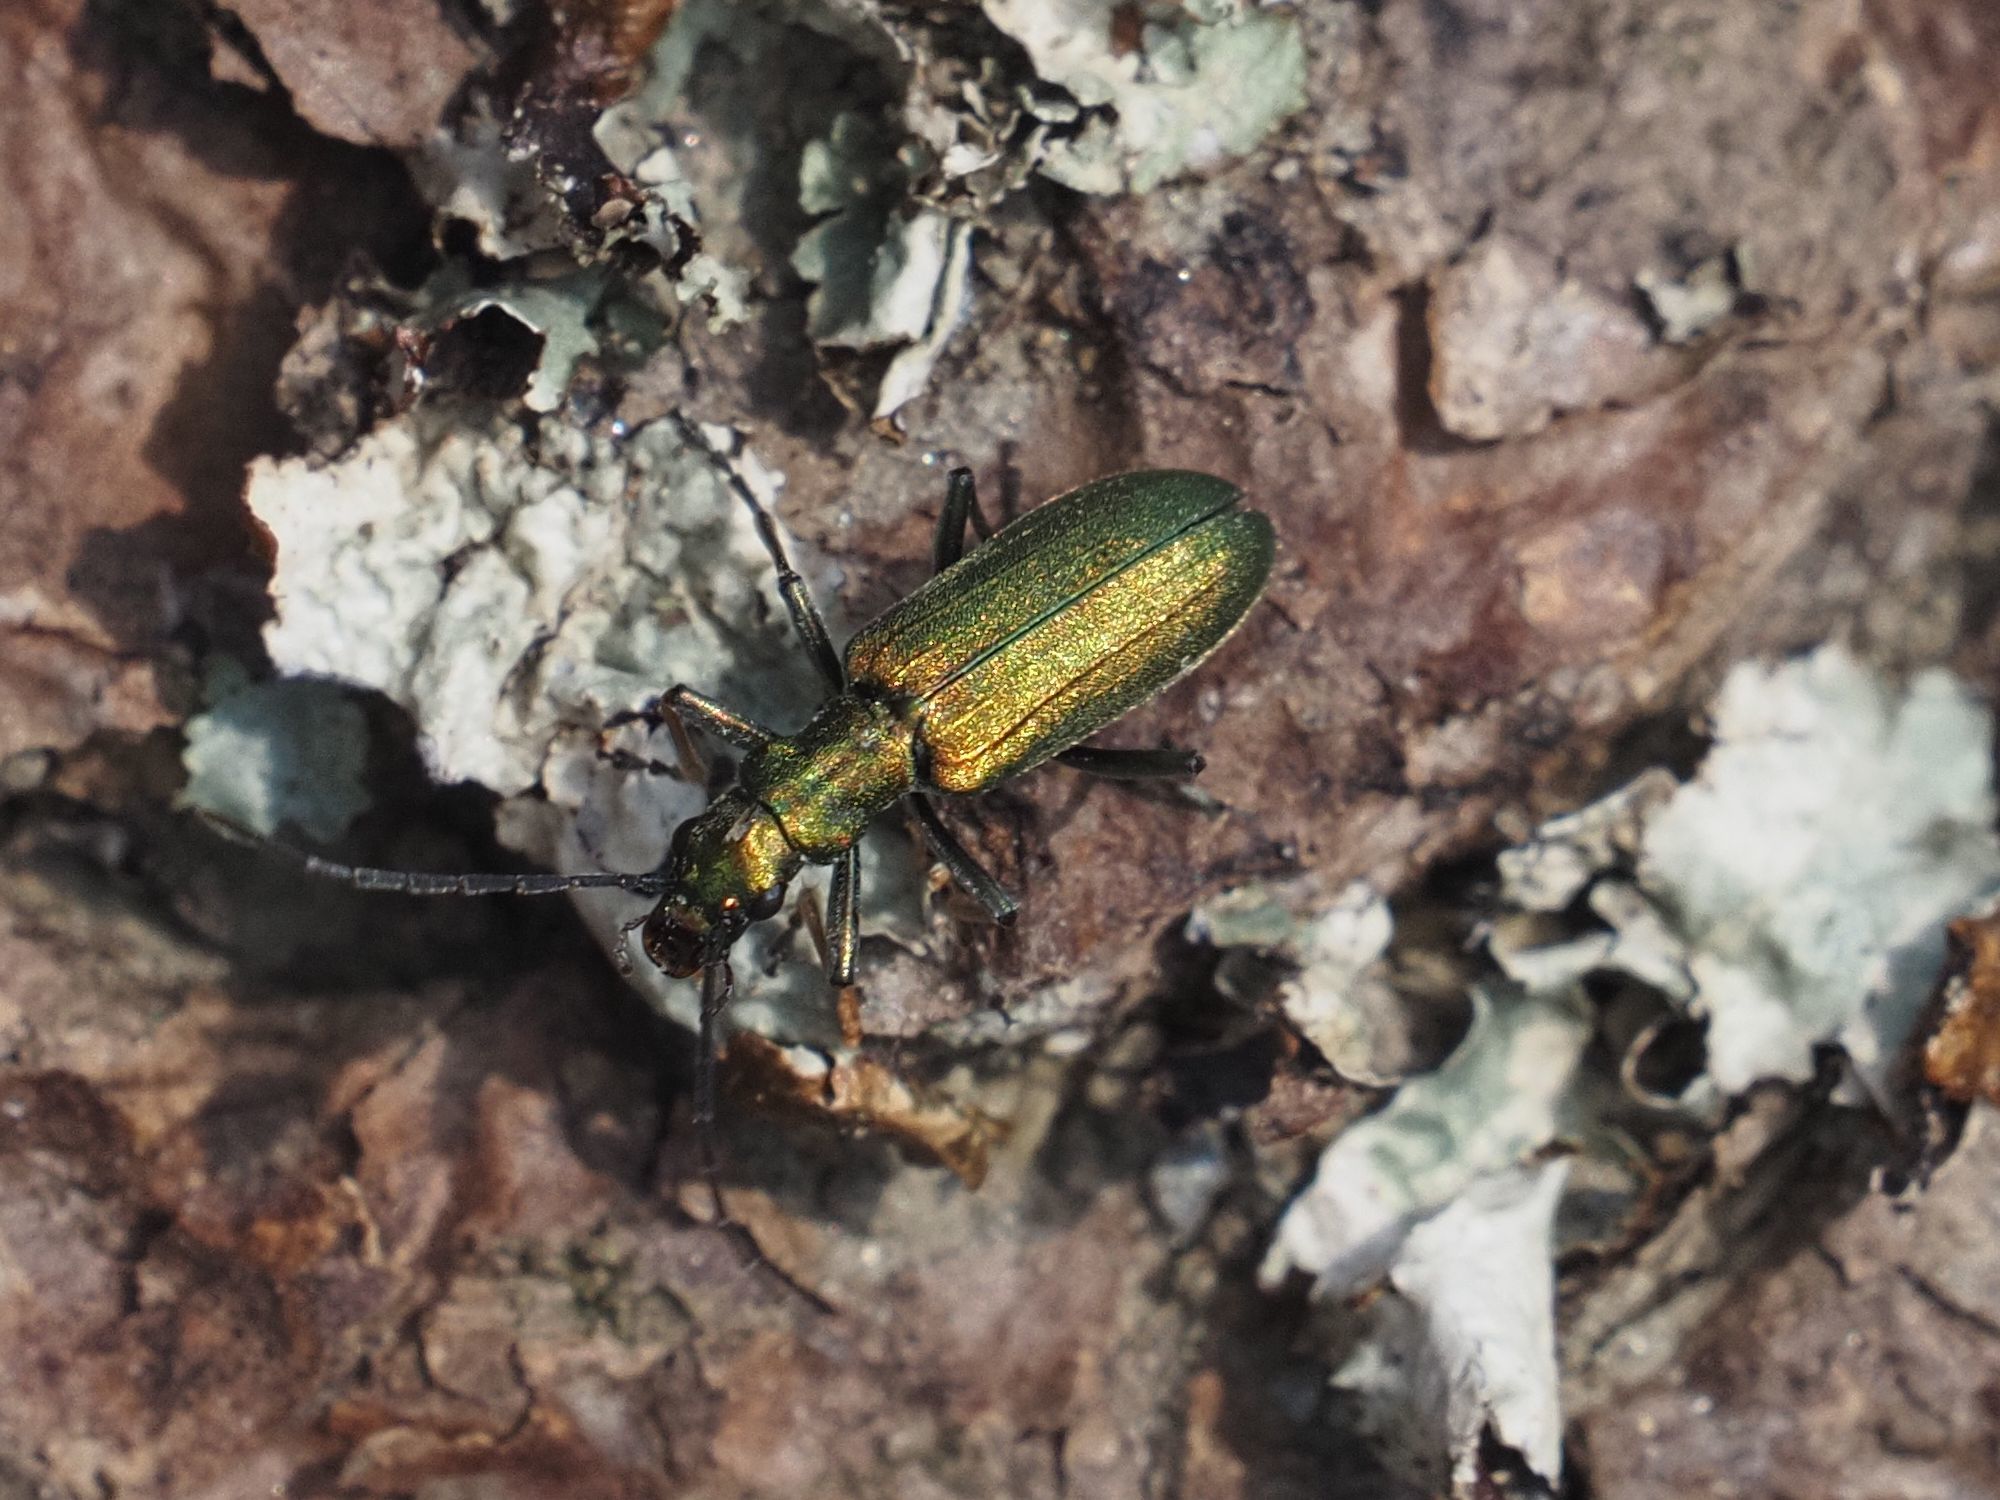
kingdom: Animalia
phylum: Arthropoda
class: Insecta
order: Coleoptera
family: Oedemeridae
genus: Chrysanthia
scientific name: Chrysanthia viridissima
